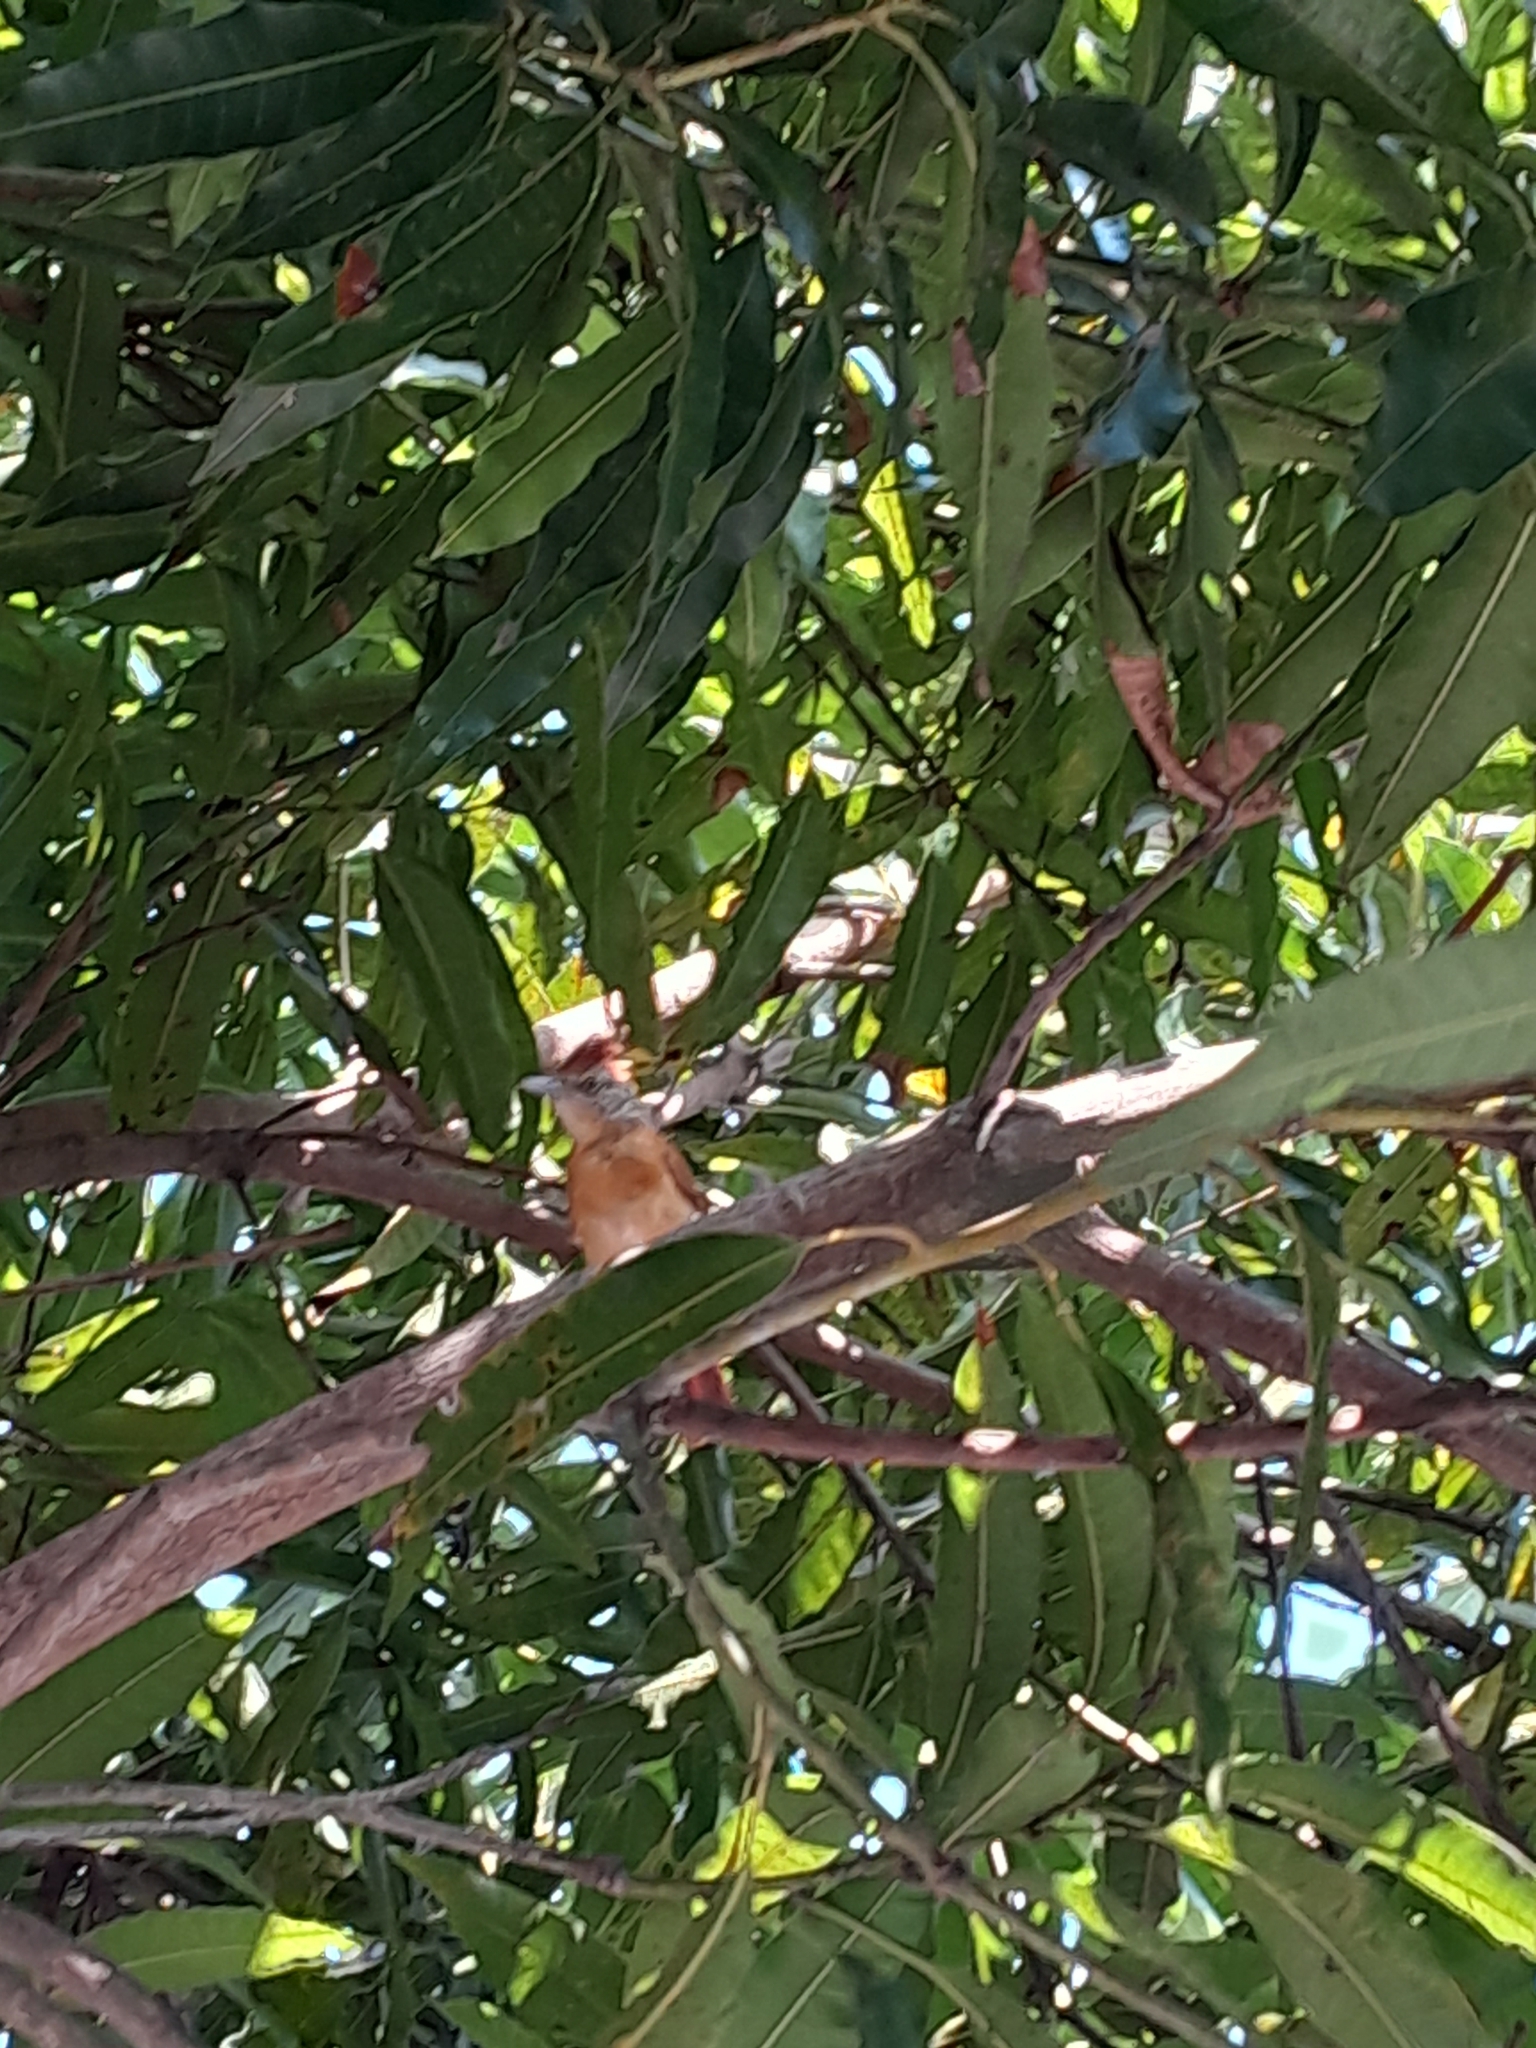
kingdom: Animalia
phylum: Chordata
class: Aves
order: Passeriformes
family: Thamnophilidae
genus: Thamnophilus
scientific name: Thamnophilus doliatus
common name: Barred antshrike
